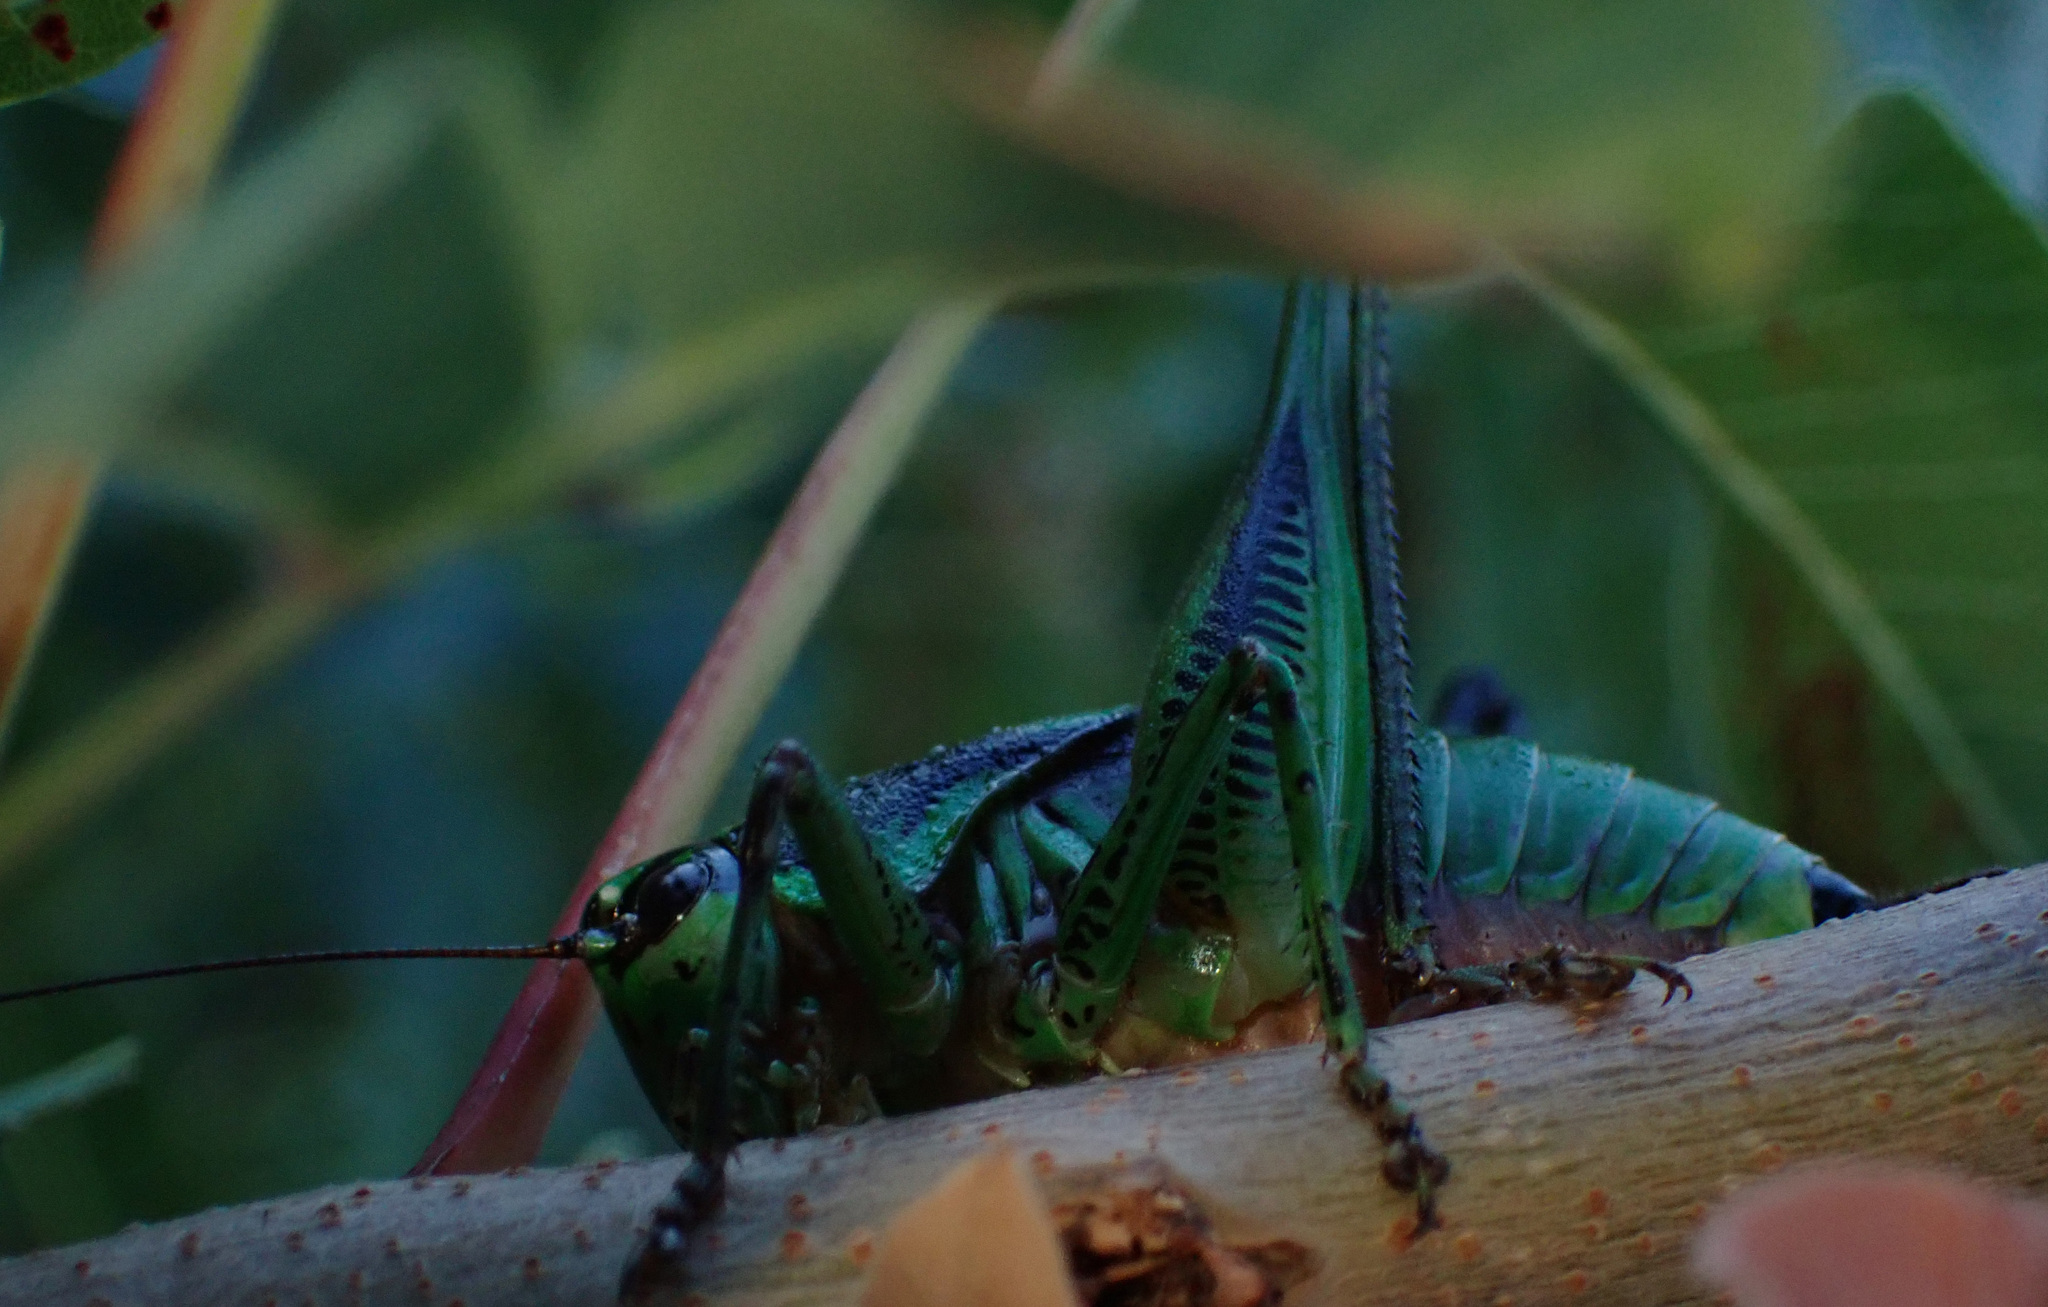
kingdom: Animalia
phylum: Arthropoda
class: Insecta
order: Orthoptera
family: Tettigoniidae
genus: Eupholidoptera
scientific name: Eupholidoptera schmidti
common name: Schmidt's marbled bush-cricket
